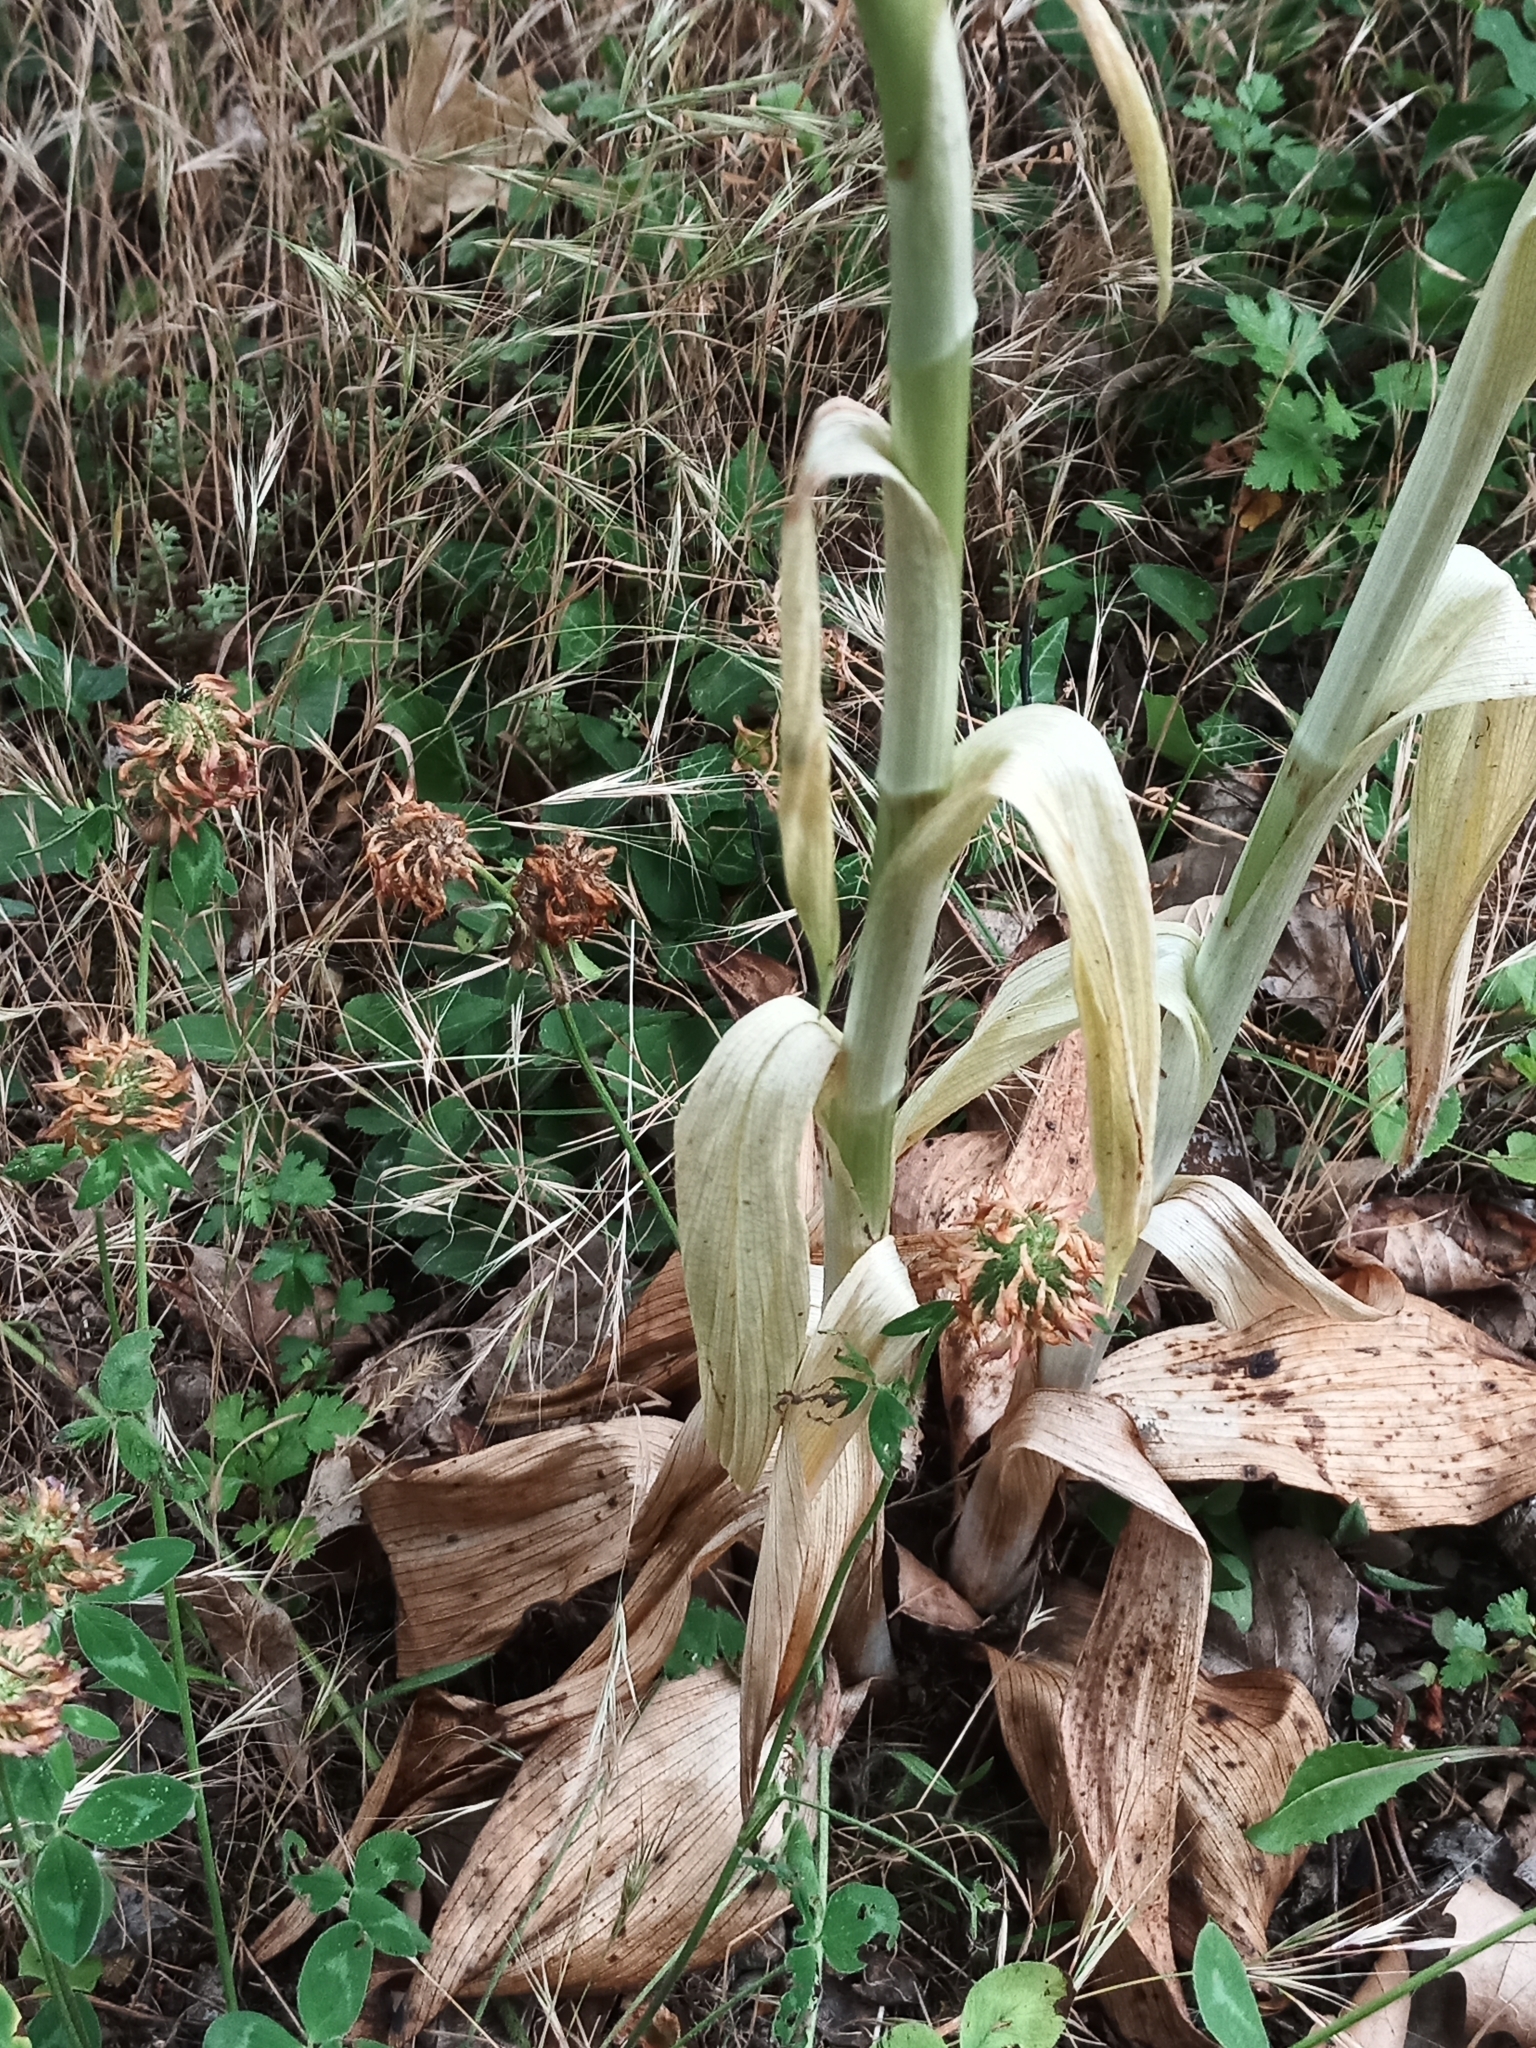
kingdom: Plantae
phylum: Tracheophyta
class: Liliopsida
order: Asparagales
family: Orchidaceae
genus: Himantoglossum
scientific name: Himantoglossum hircinum
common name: Lizard orchid
